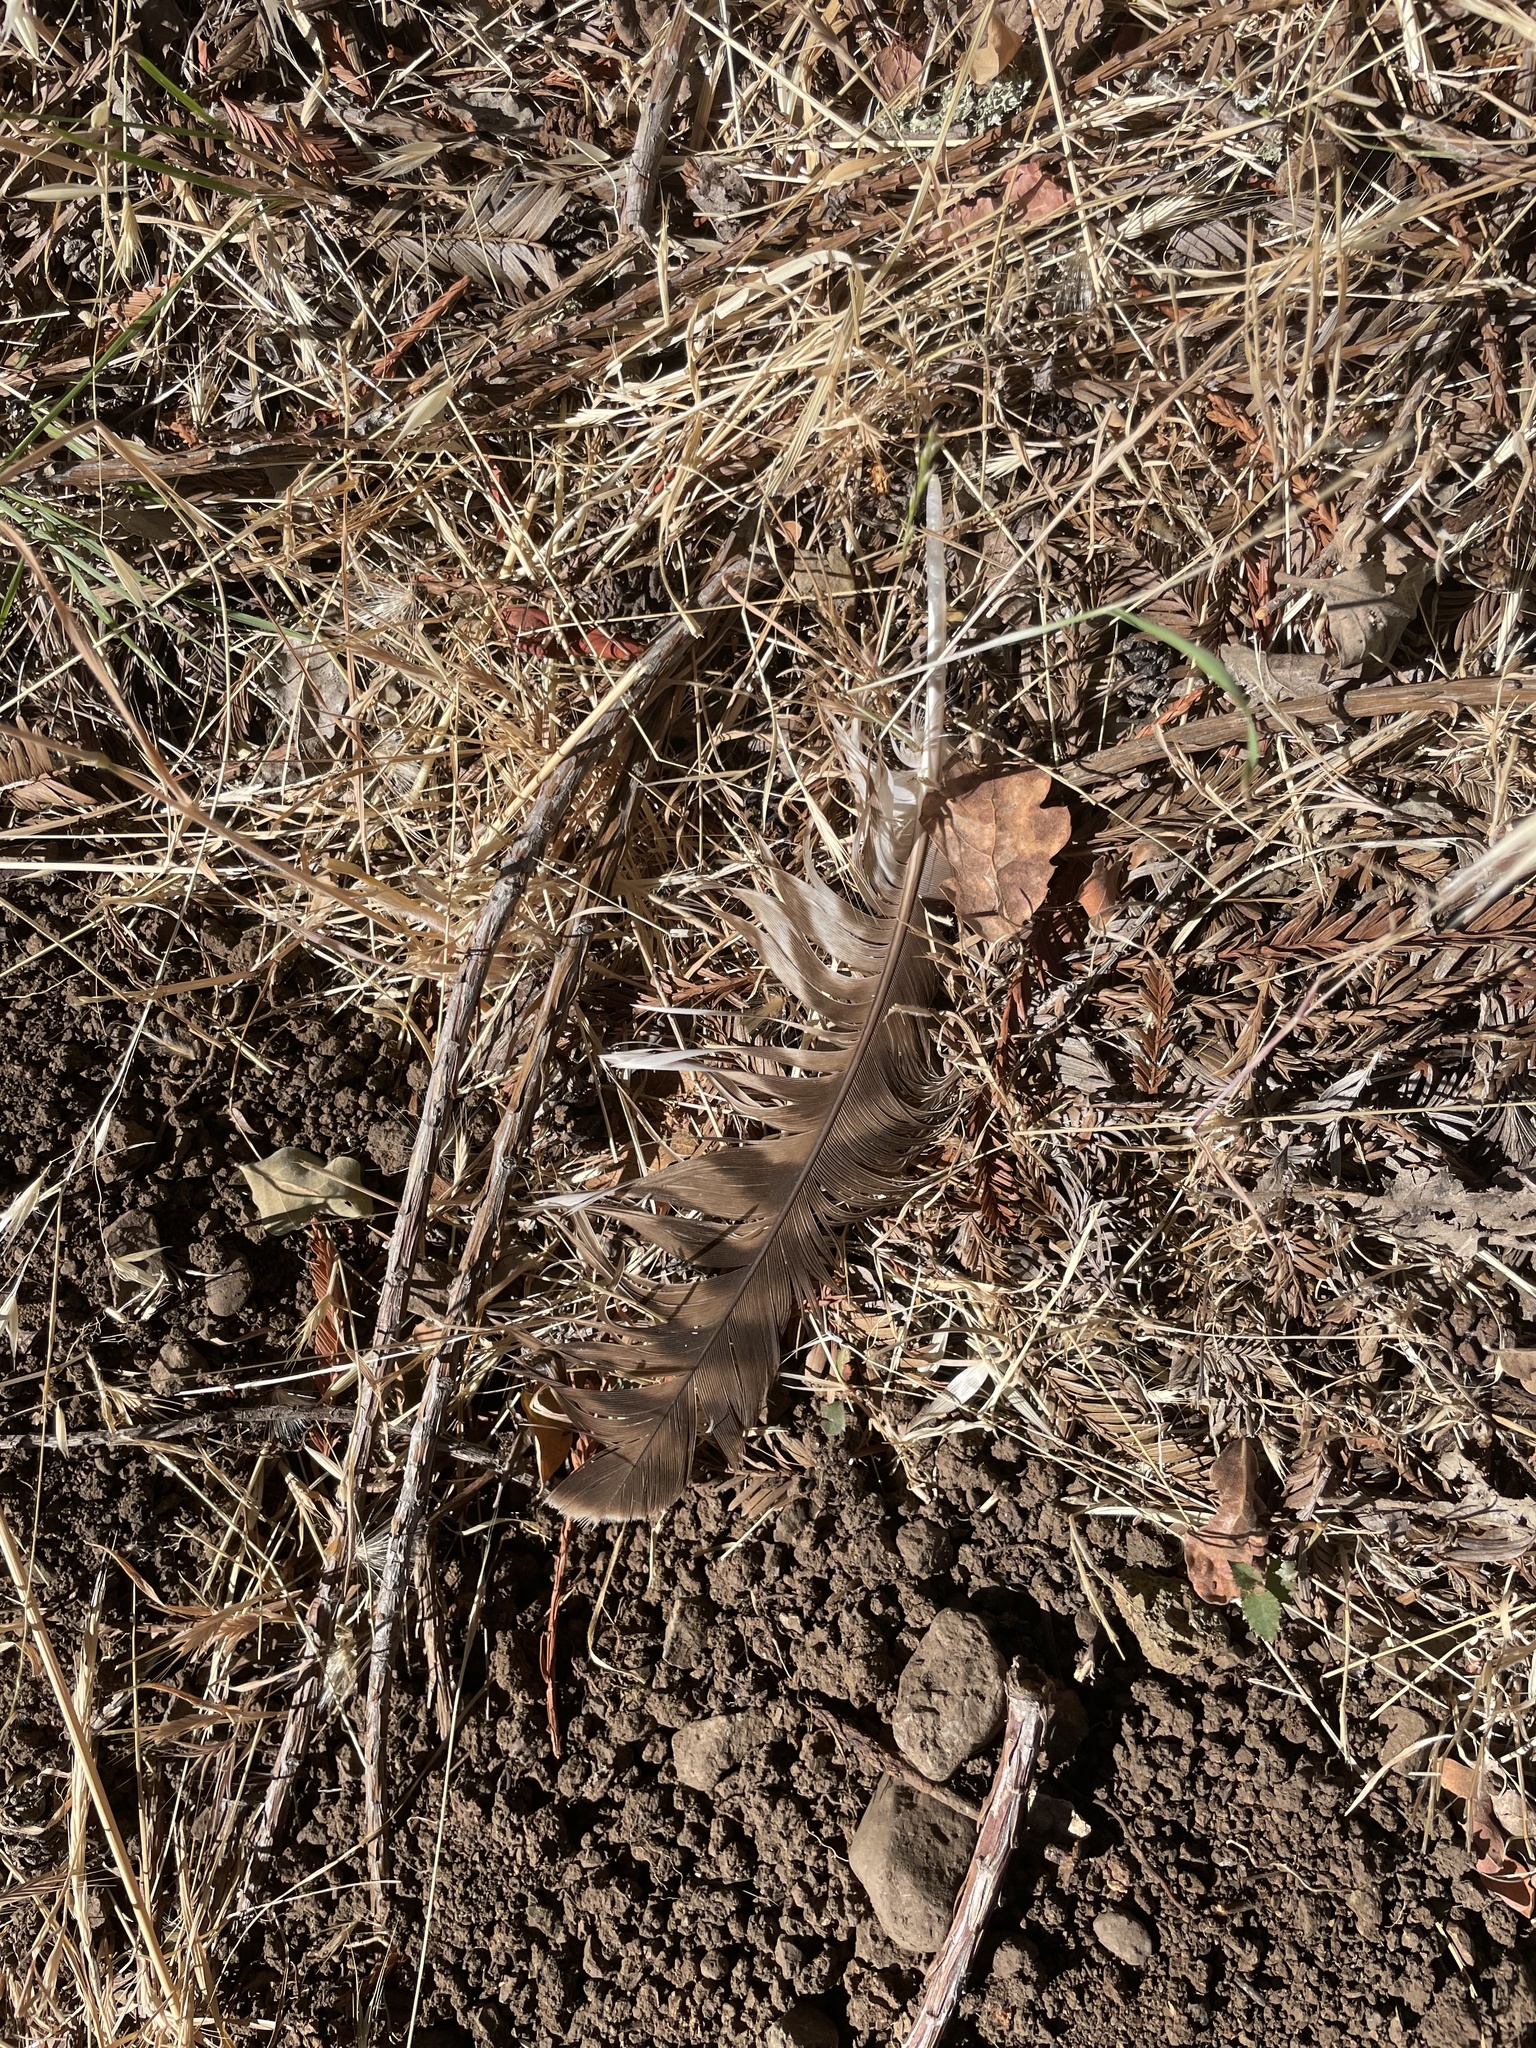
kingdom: Animalia
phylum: Chordata
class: Aves
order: Accipitriformes
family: Accipitridae
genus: Buteo
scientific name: Buteo jamaicensis
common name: Red-tailed hawk
